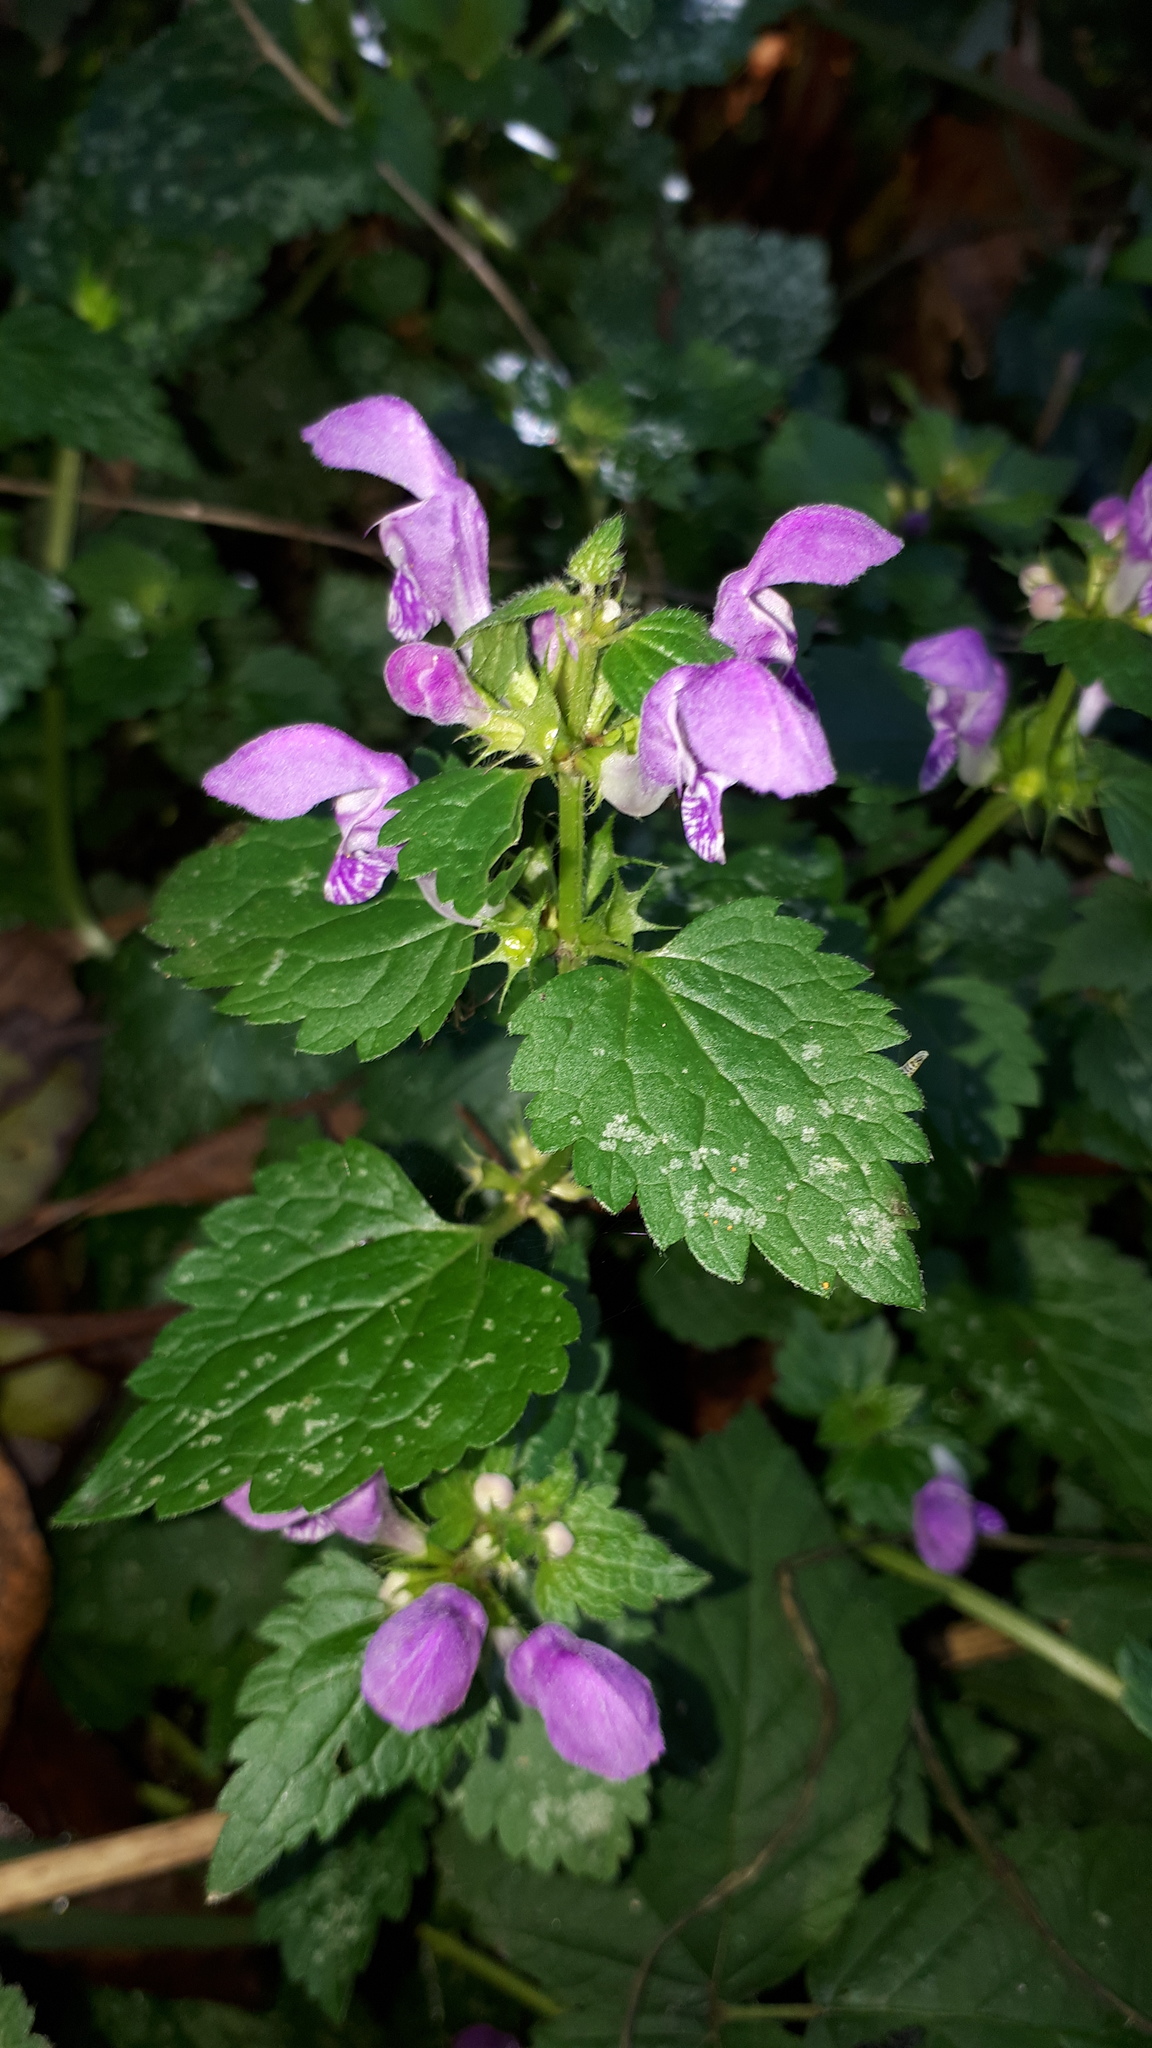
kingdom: Plantae
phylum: Tracheophyta
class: Magnoliopsida
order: Lamiales
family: Lamiaceae
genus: Lamium
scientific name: Lamium maculatum
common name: Spotted dead-nettle
